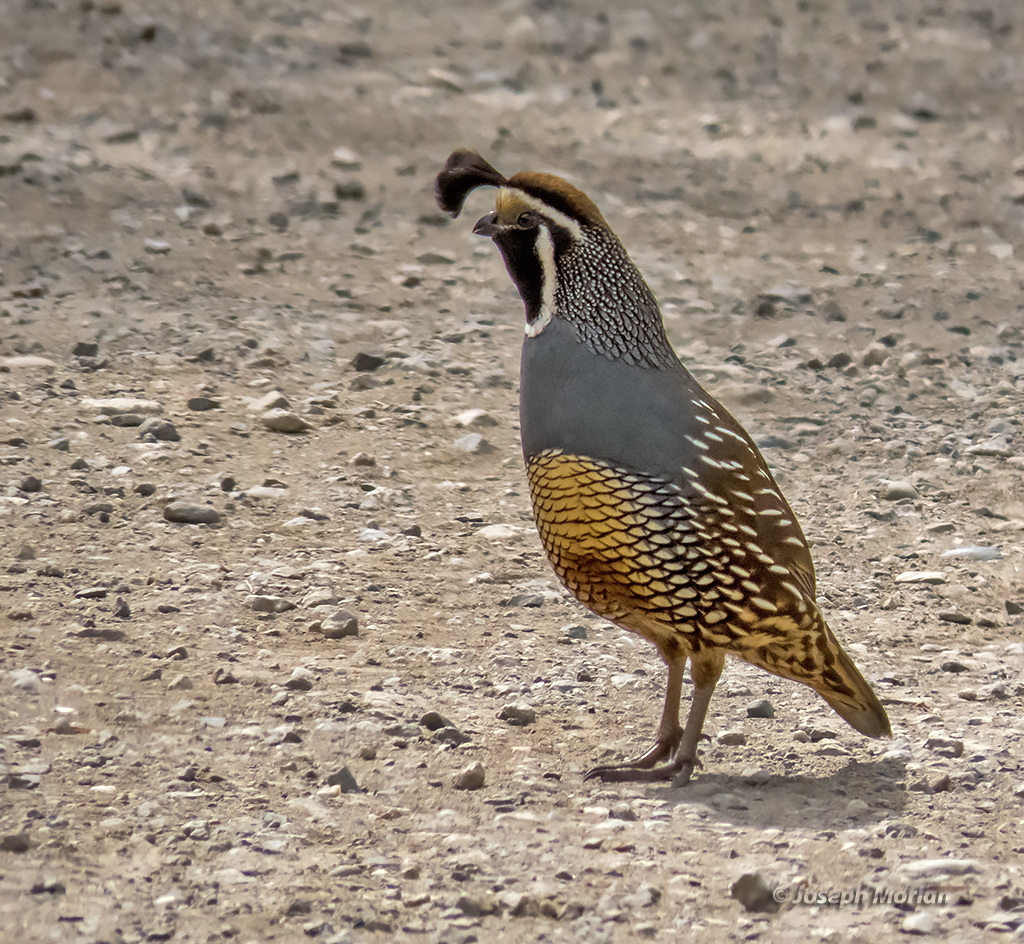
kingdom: Animalia
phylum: Chordata
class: Aves
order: Galliformes
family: Odontophoridae
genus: Callipepla
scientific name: Callipepla californica
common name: California quail
